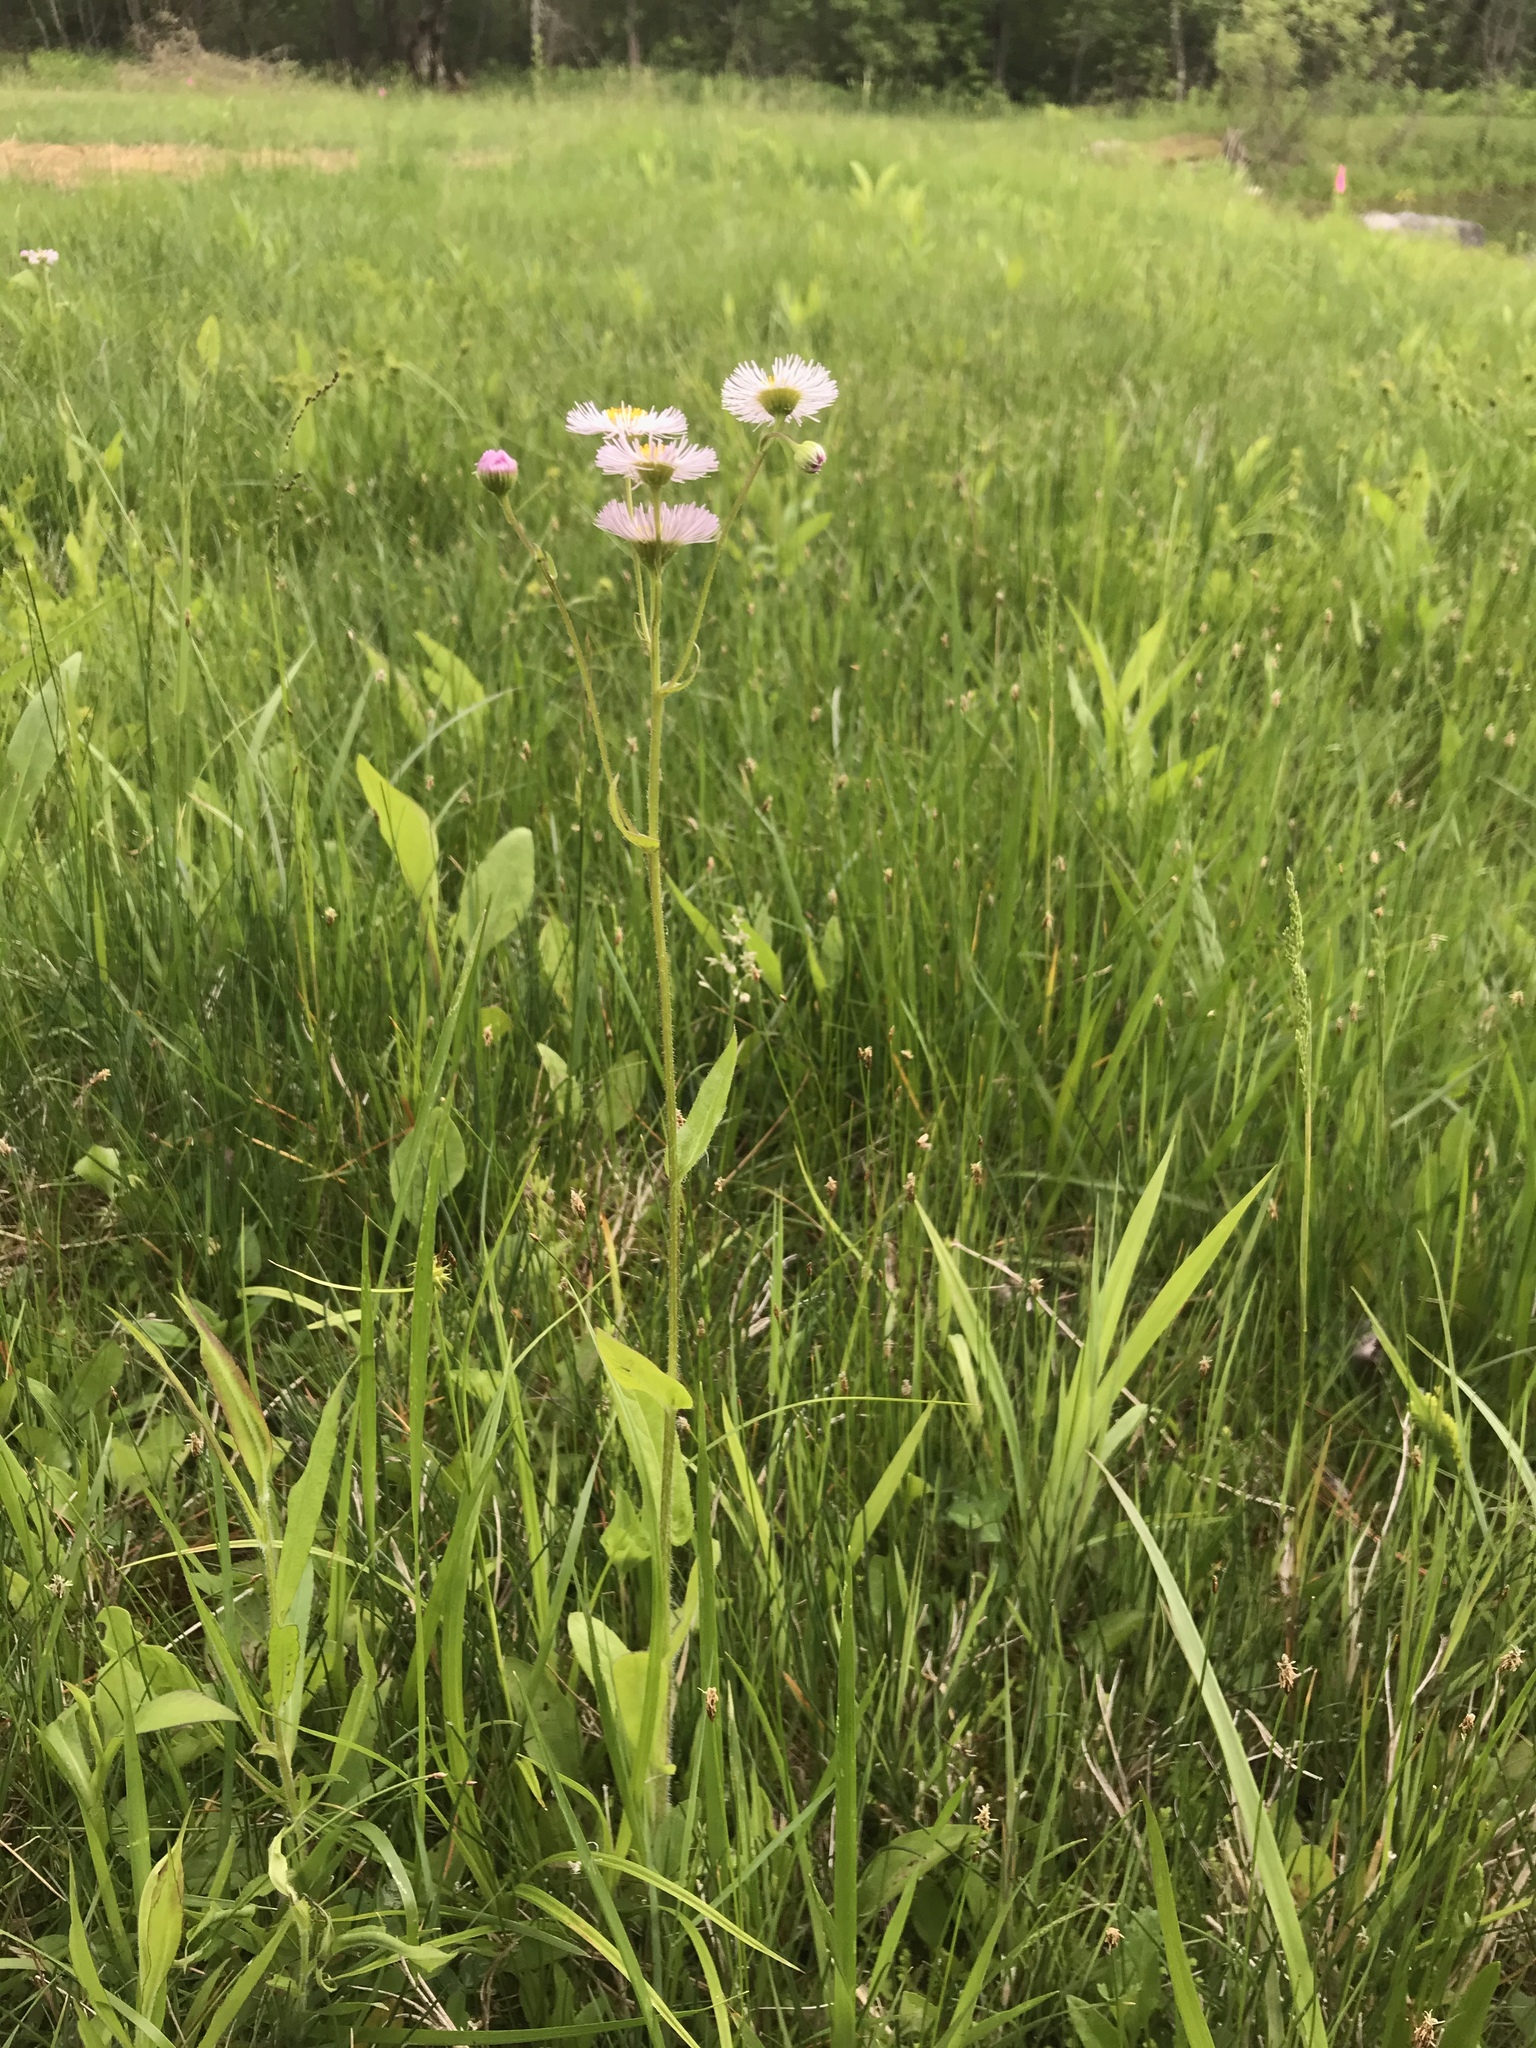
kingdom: Plantae
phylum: Tracheophyta
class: Magnoliopsida
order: Asterales
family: Asteraceae
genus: Erigeron
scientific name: Erigeron philadelphicus
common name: Robin's-plantain
